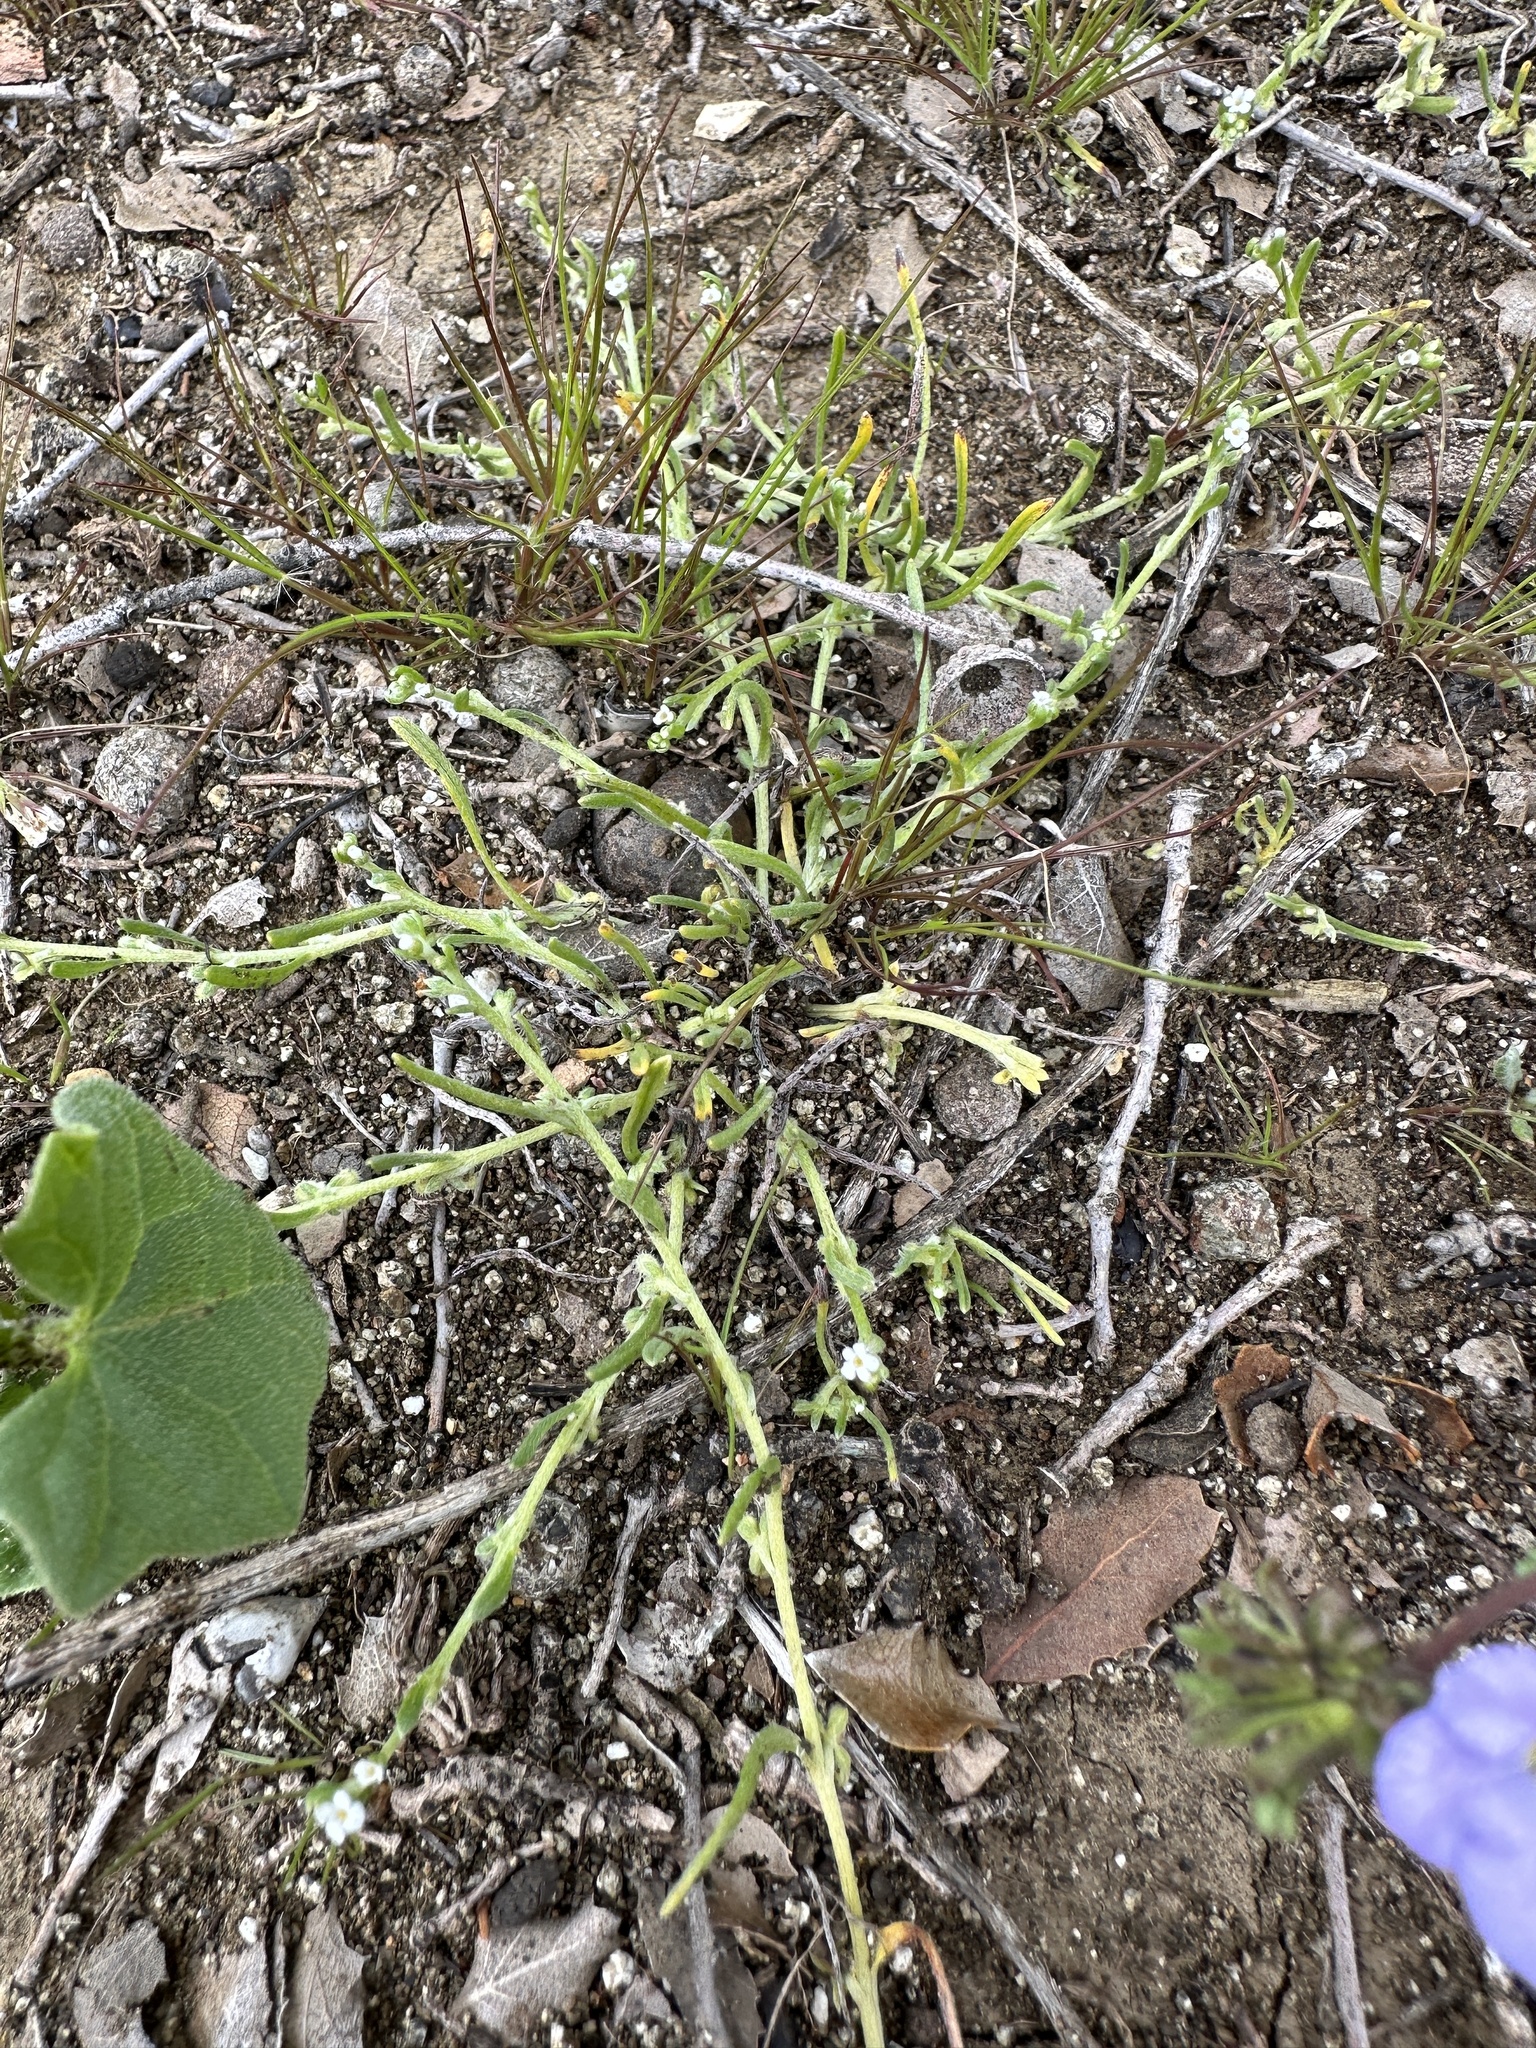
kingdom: Plantae
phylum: Tracheophyta
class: Magnoliopsida
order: Boraginales
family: Boraginaceae
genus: Pectocarya
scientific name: Pectocarya penicillata
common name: Short-leaved combseed
